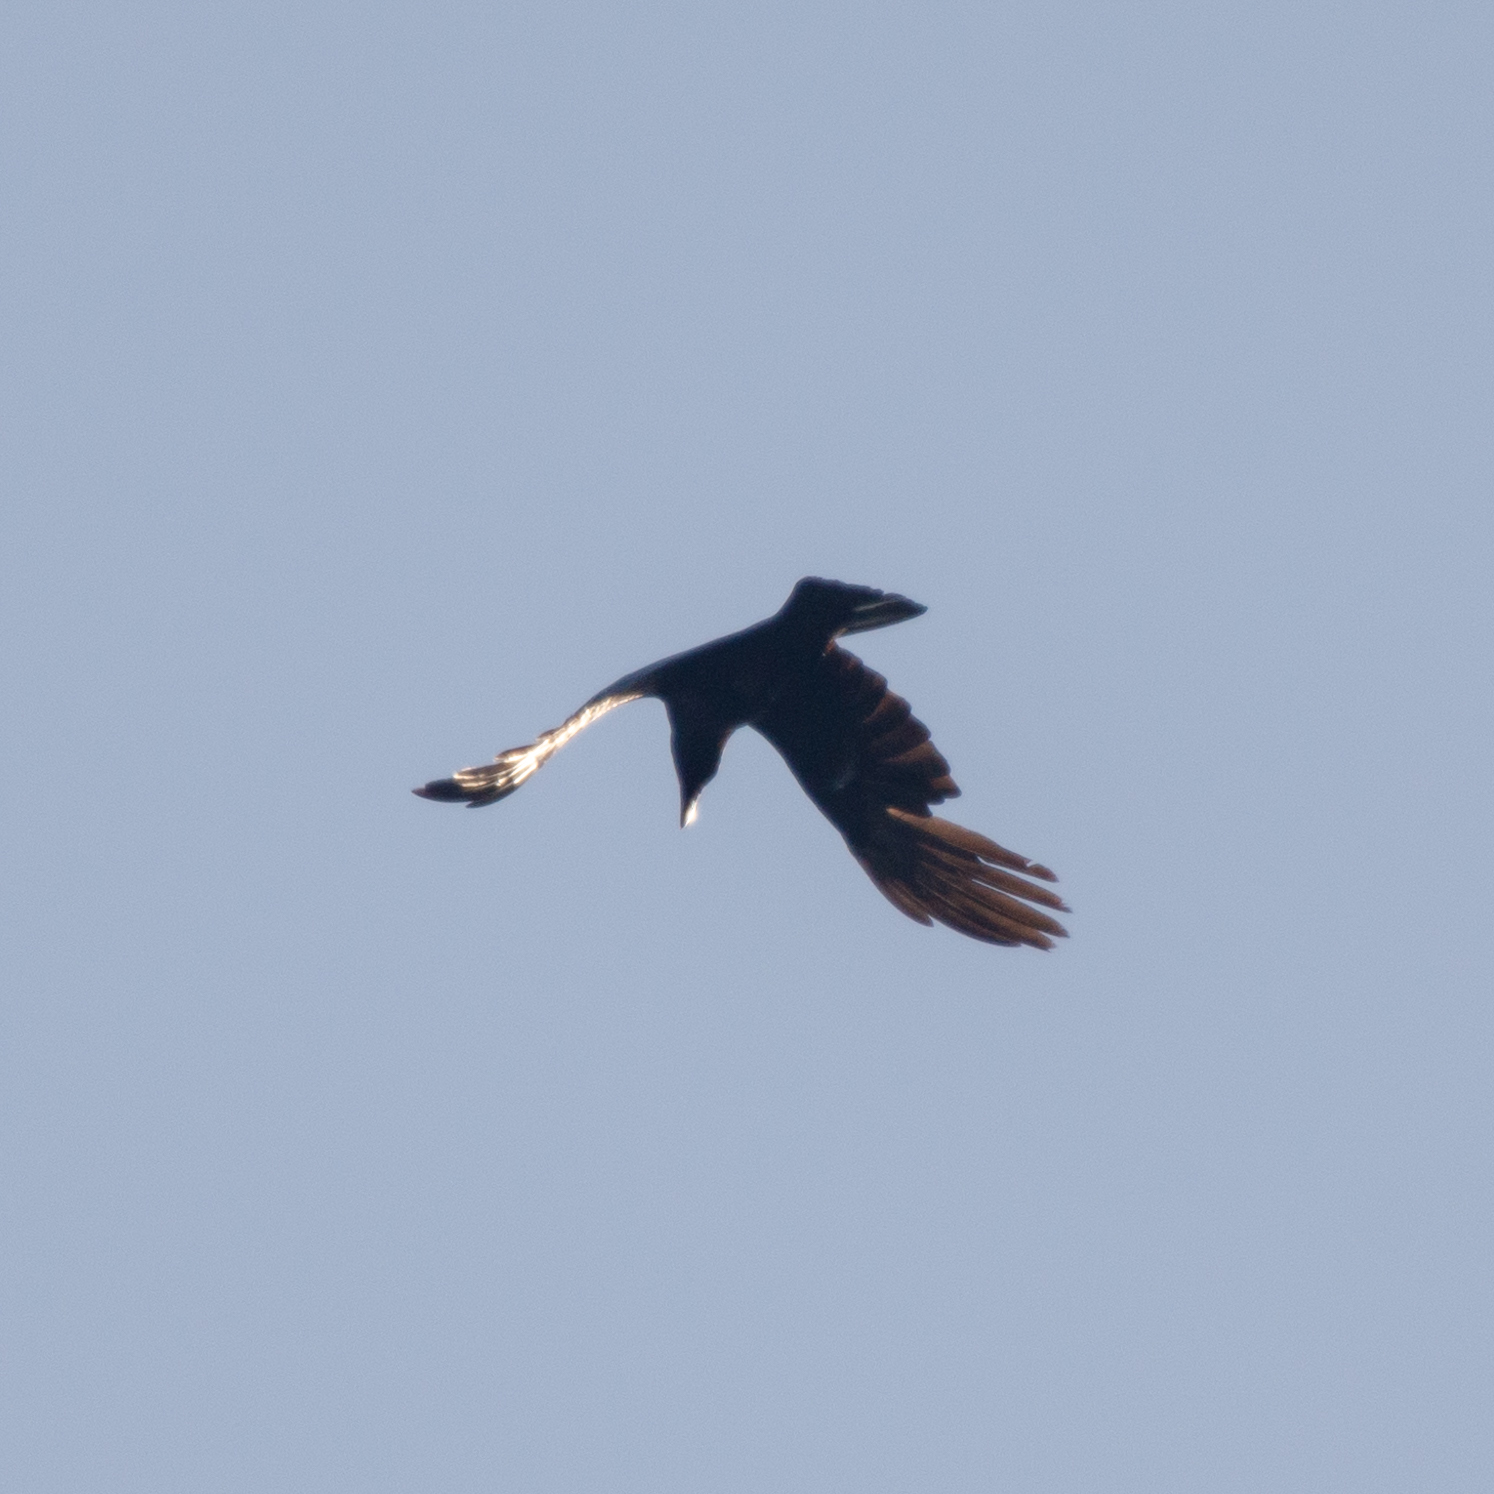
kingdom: Animalia
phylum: Chordata
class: Aves
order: Passeriformes
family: Corvidae
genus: Corvus
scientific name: Corvus corone
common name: Carrion crow
